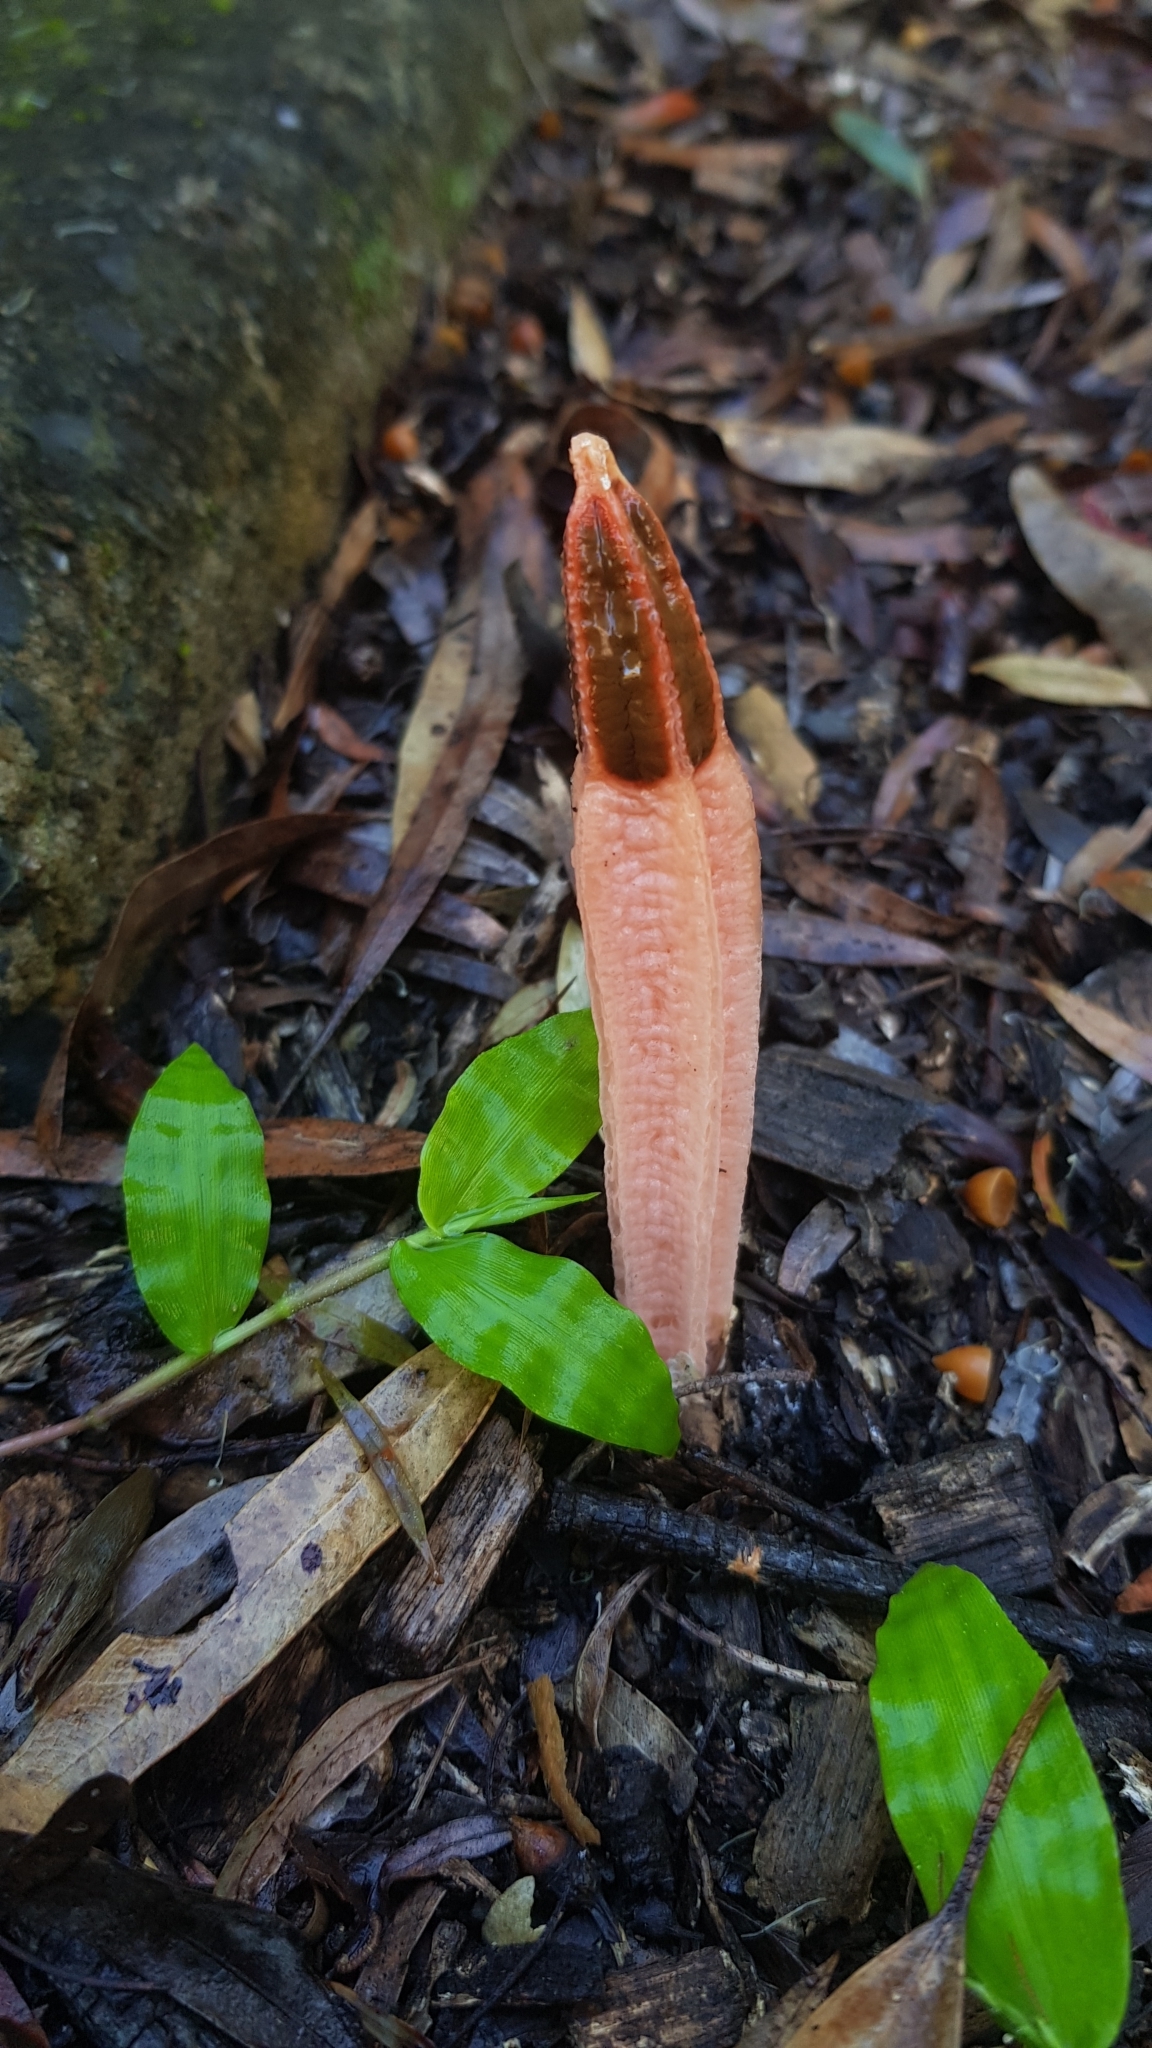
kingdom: Fungi
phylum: Basidiomycota
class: Agaricomycetes
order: Phallales
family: Phallaceae
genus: Lysurus
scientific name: Lysurus mokusin
